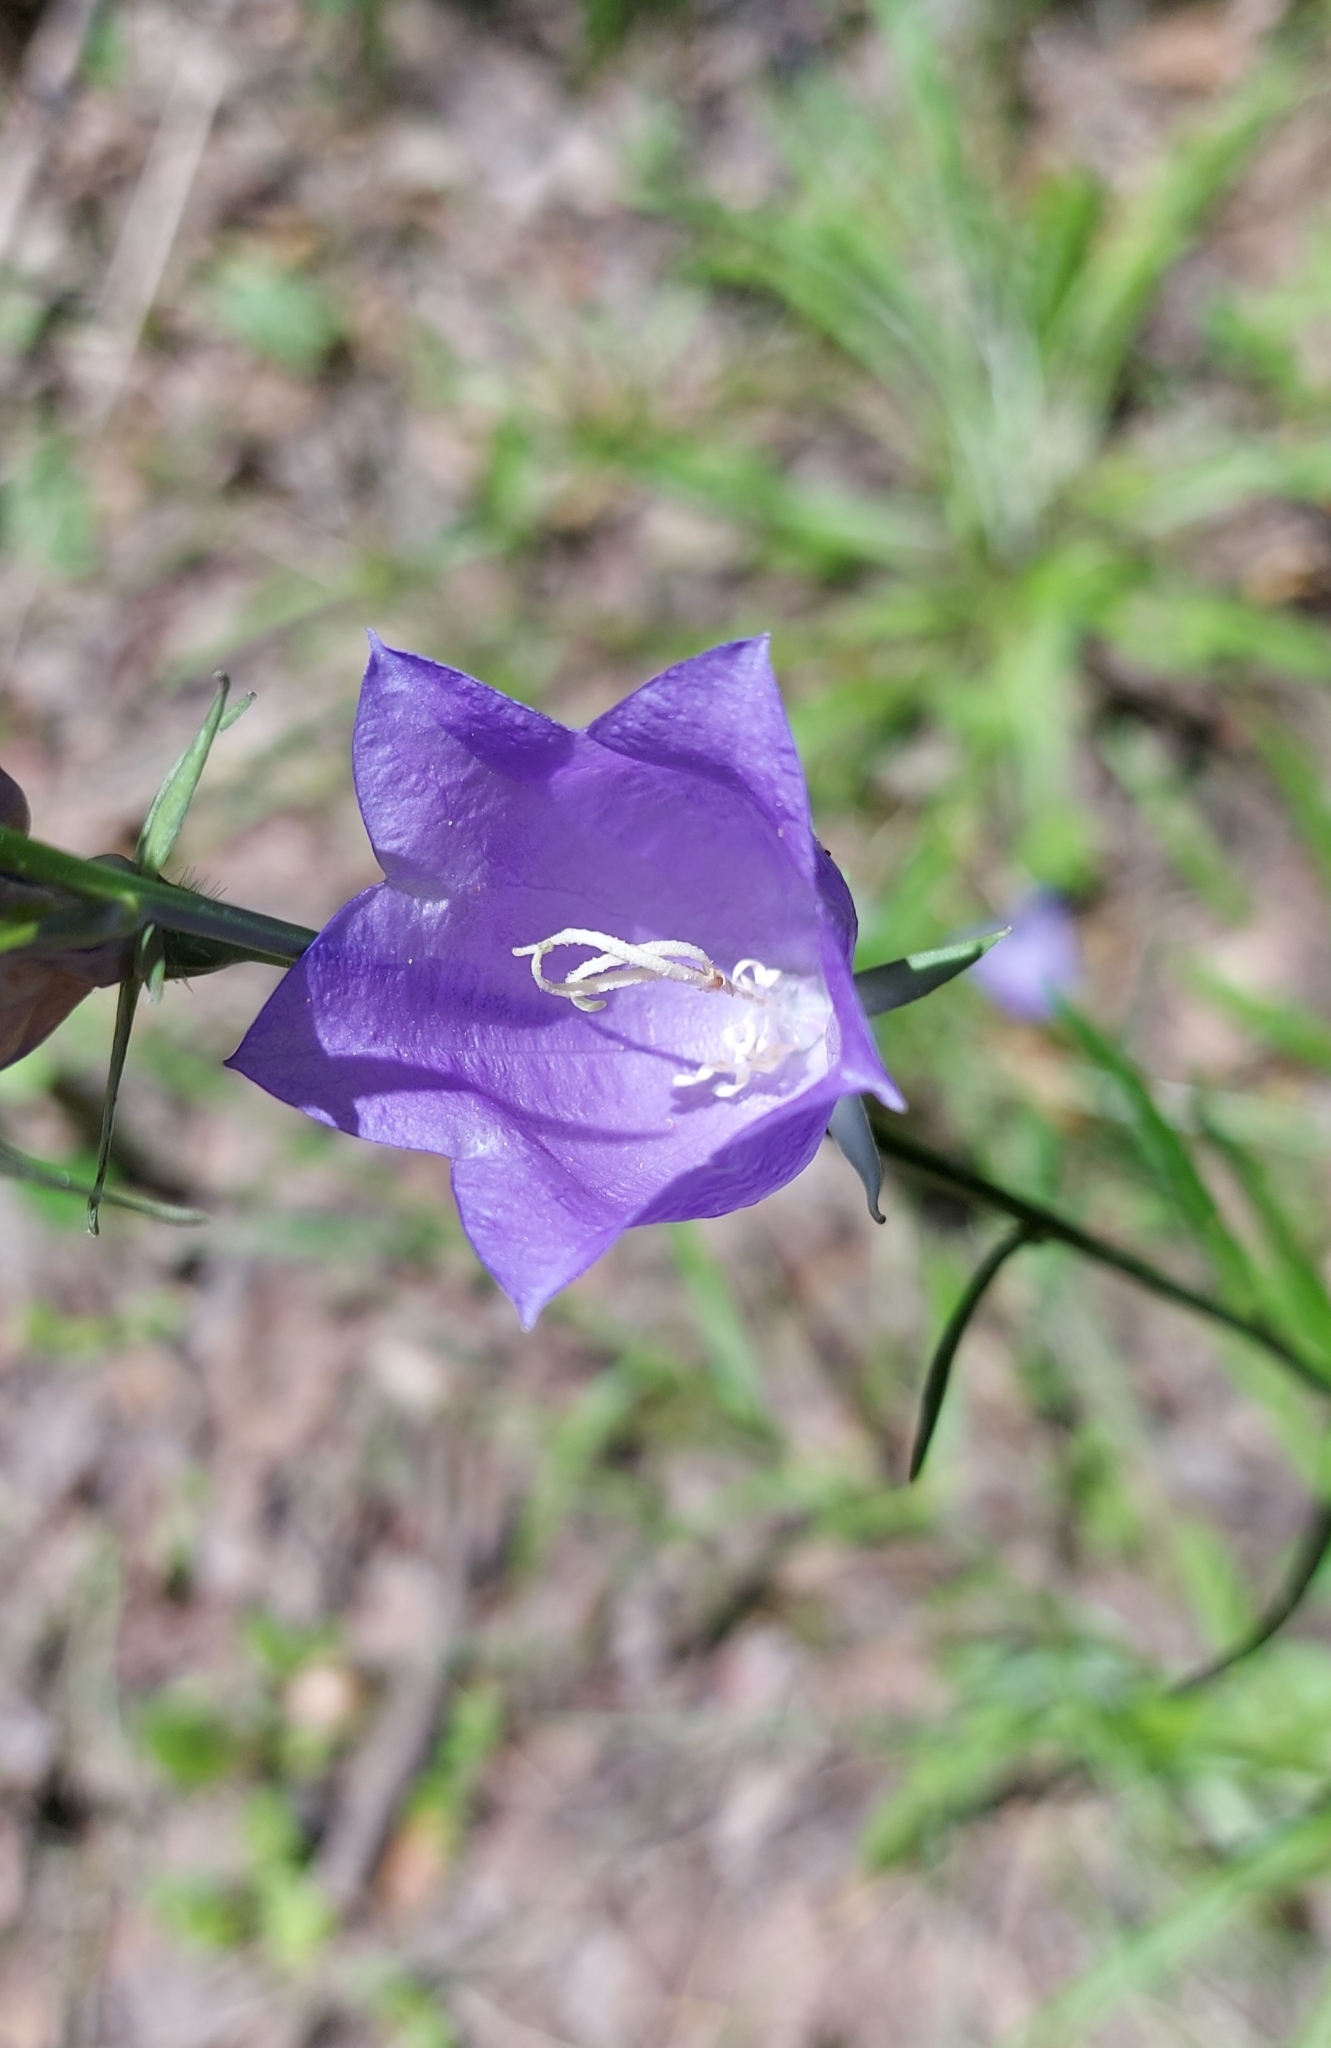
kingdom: Plantae
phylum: Tracheophyta
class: Magnoliopsida
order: Asterales
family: Campanulaceae
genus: Campanula
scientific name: Campanula persicifolia
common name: Peach-leaved bellflower
